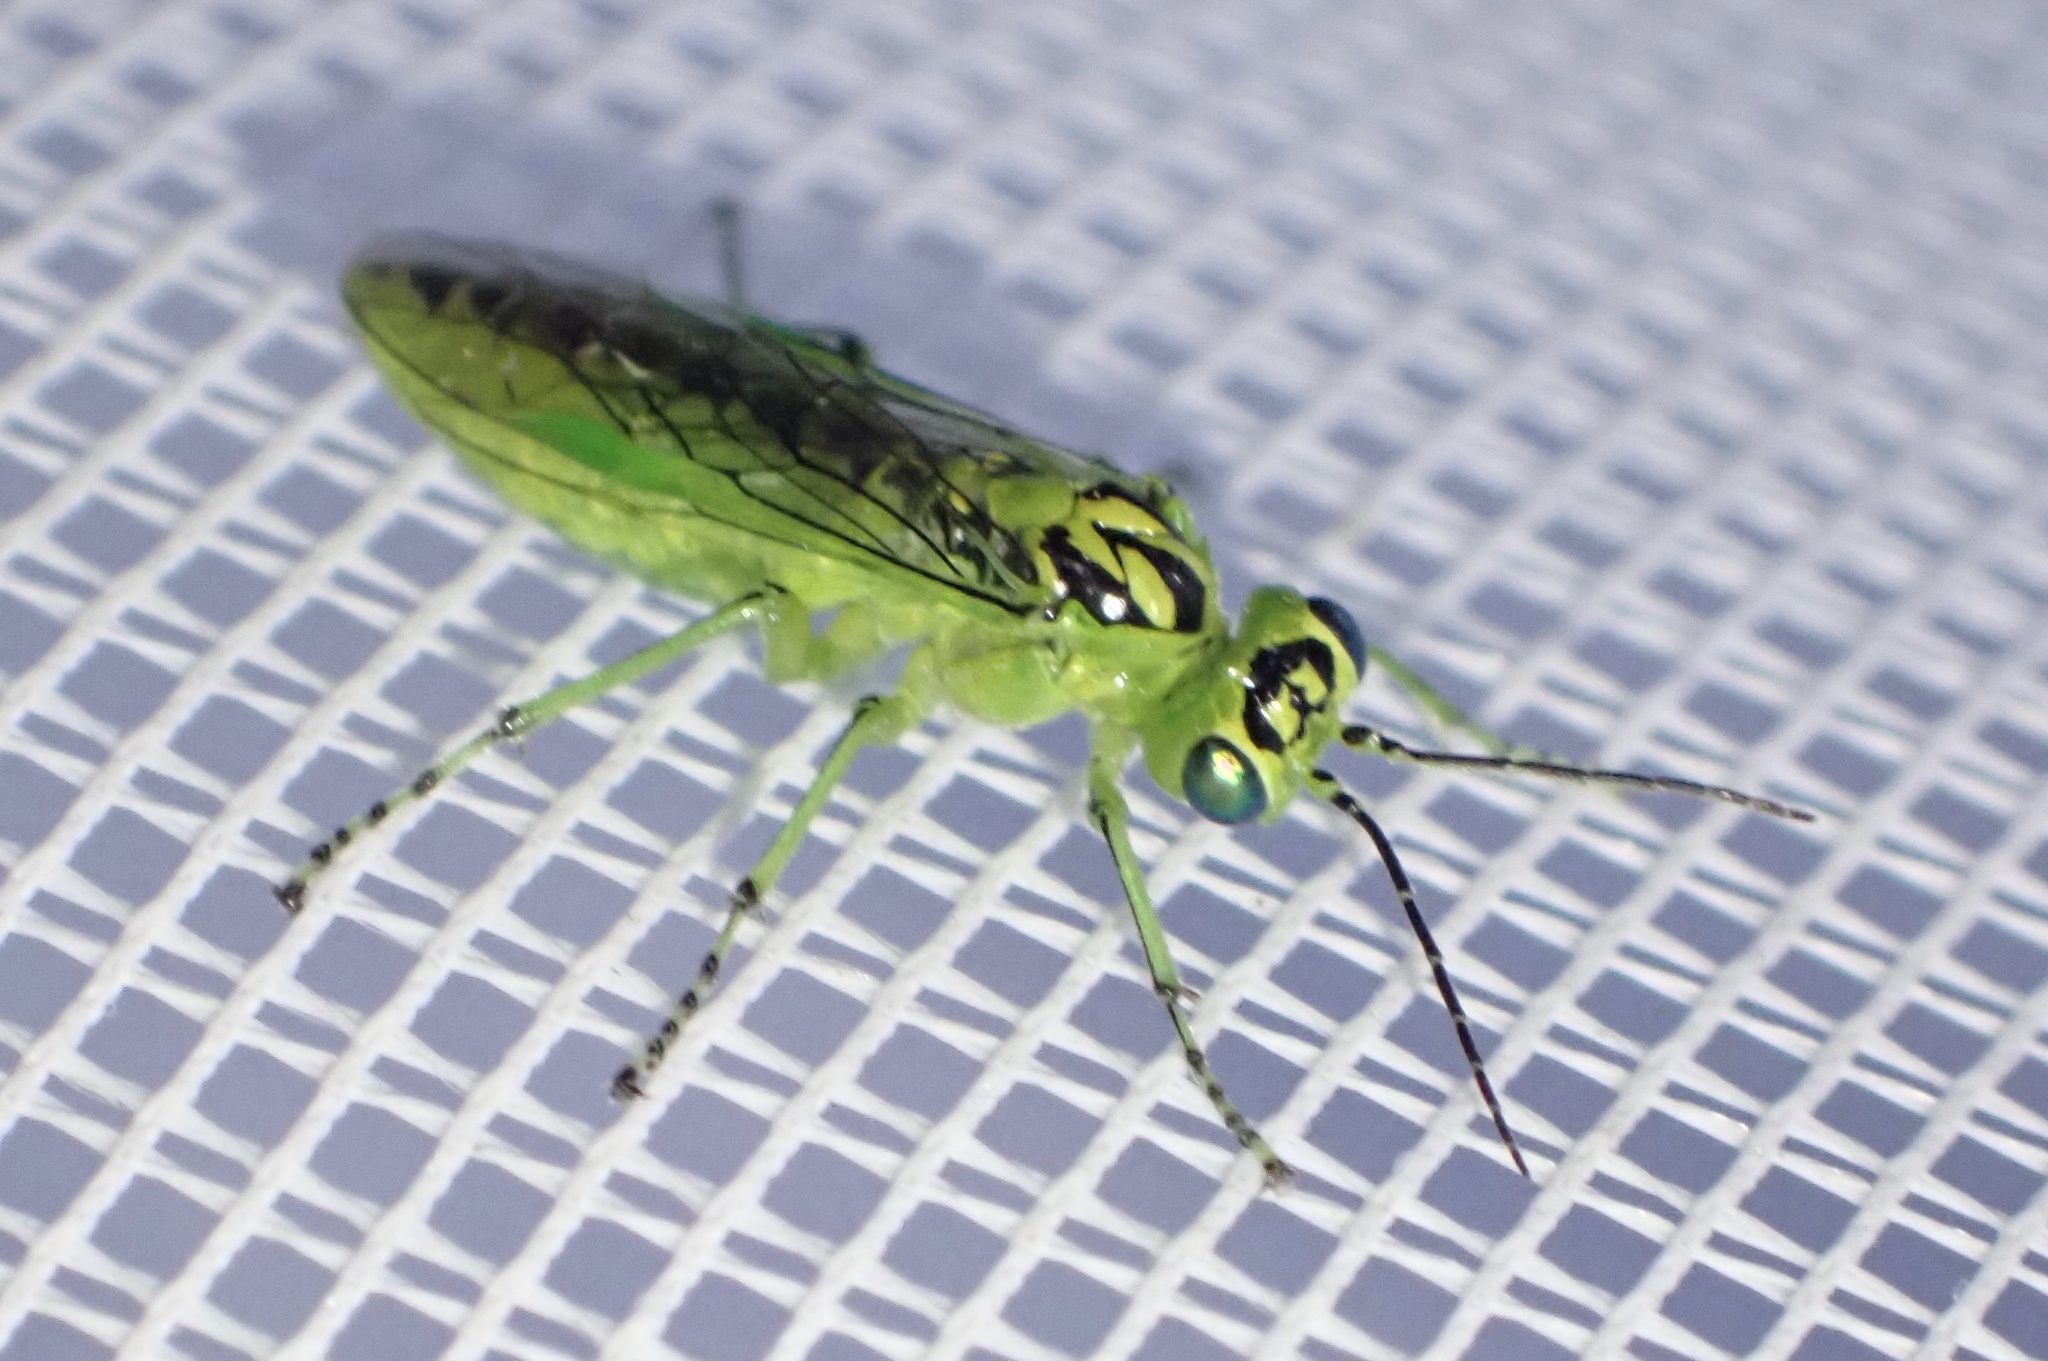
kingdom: Animalia
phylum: Arthropoda
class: Insecta
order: Hymenoptera
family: Tenthredinidae
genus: Rhogogaster
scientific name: Rhogogaster chlorosoma
